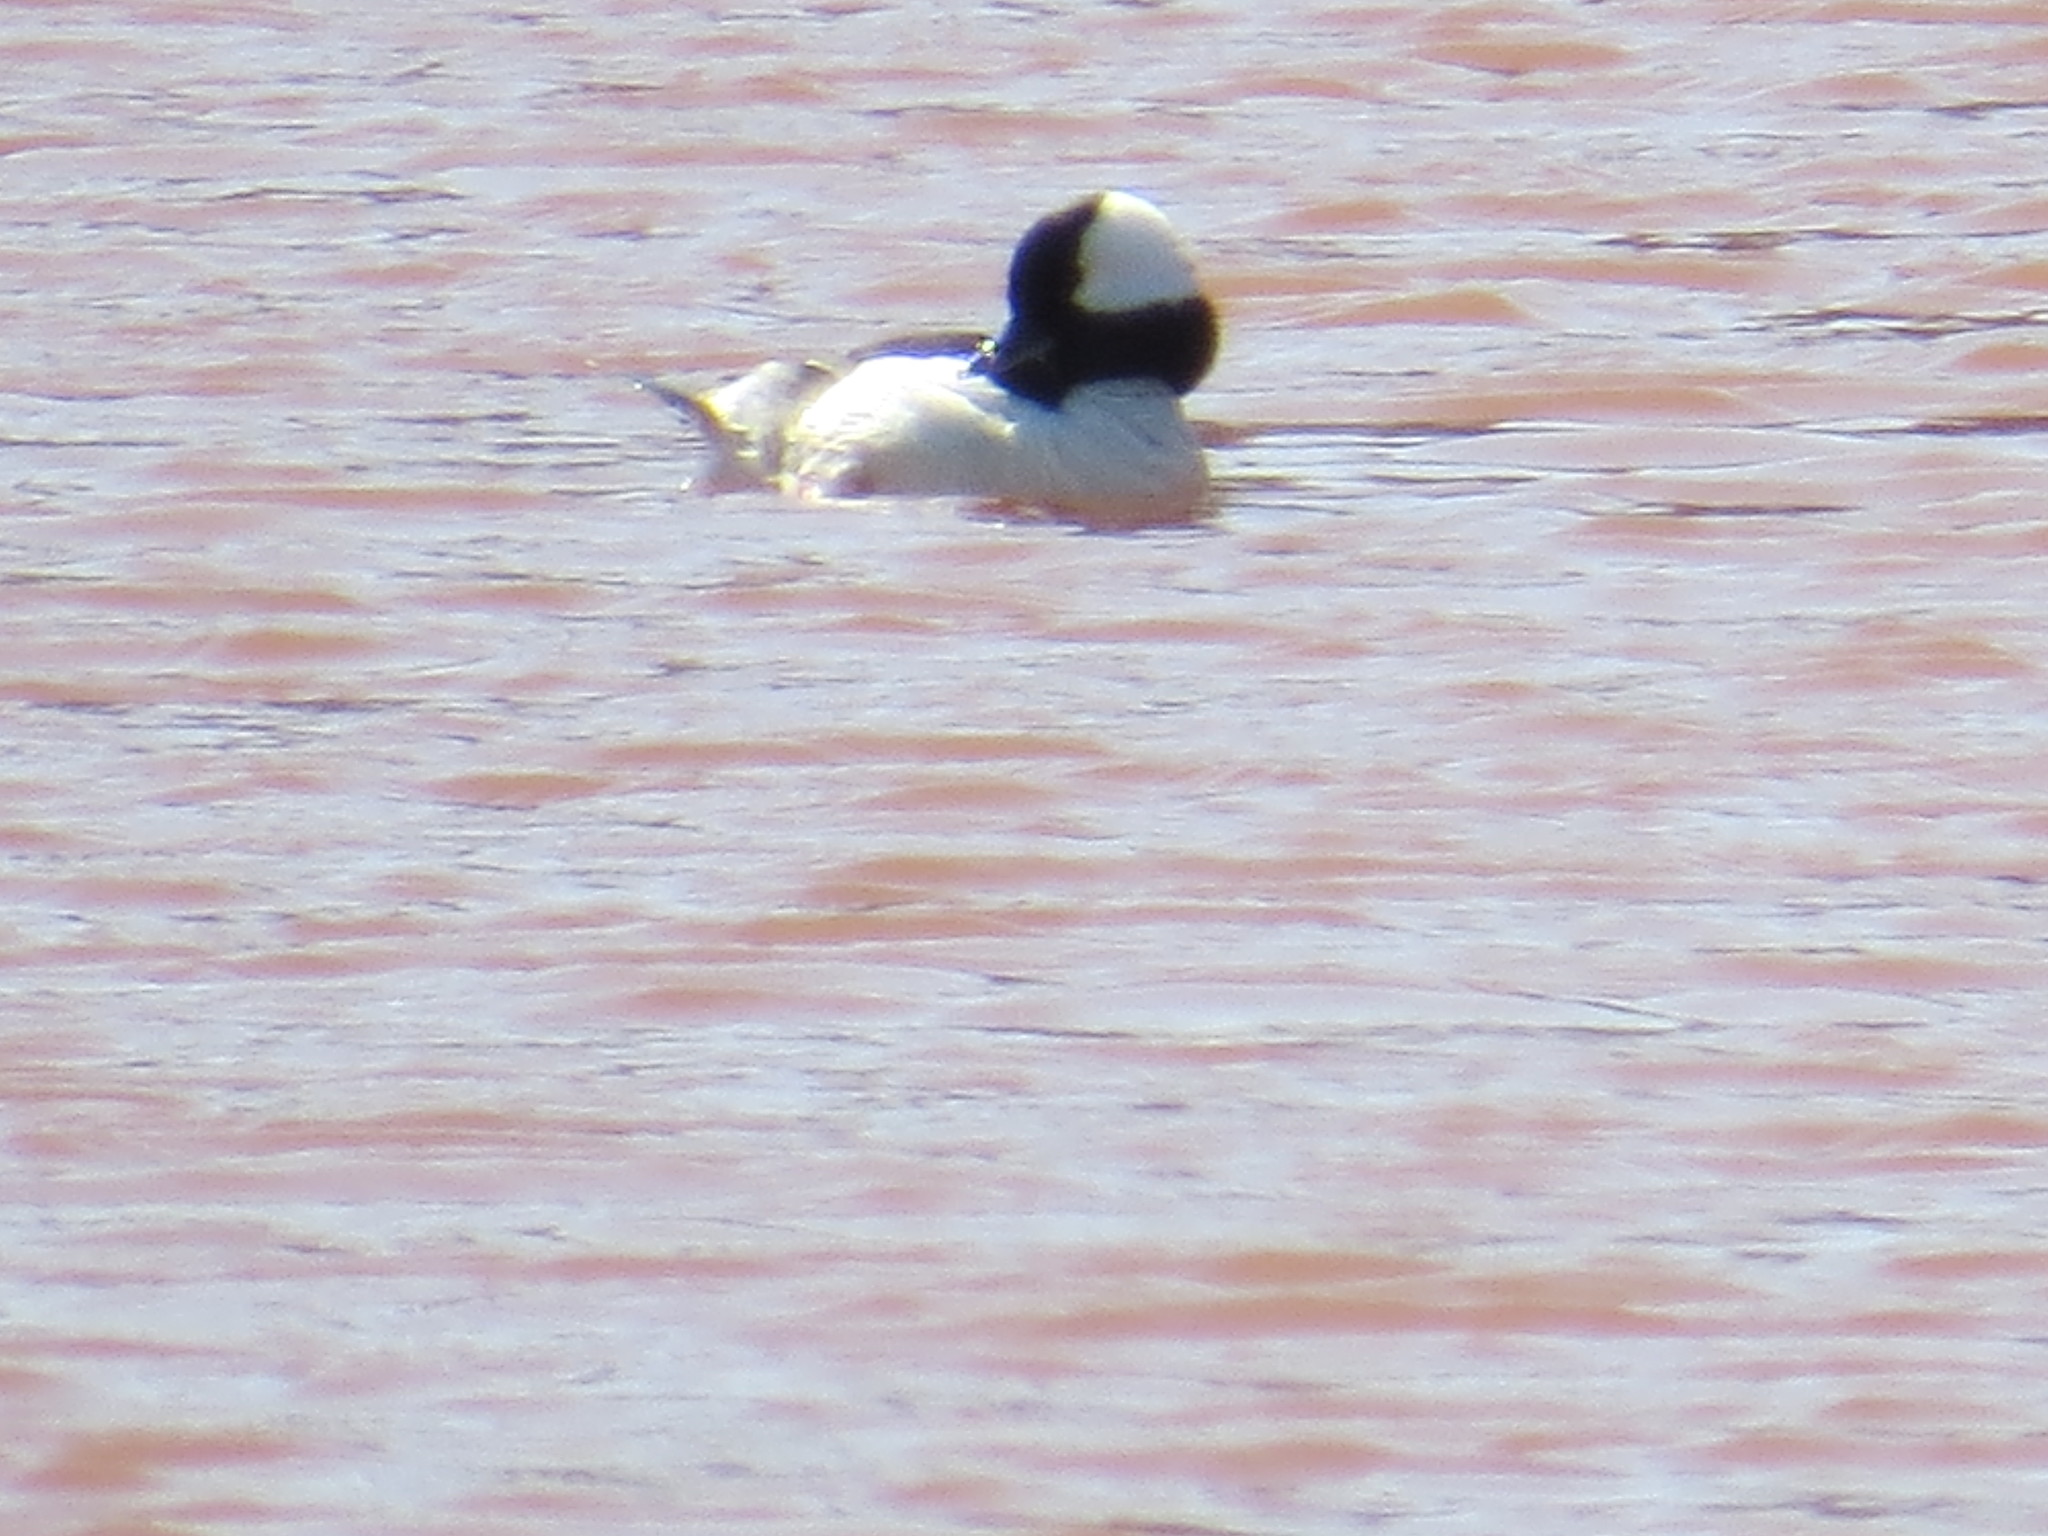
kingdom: Animalia
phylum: Chordata
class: Aves
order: Anseriformes
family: Anatidae
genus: Bucephala
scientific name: Bucephala albeola
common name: Bufflehead
